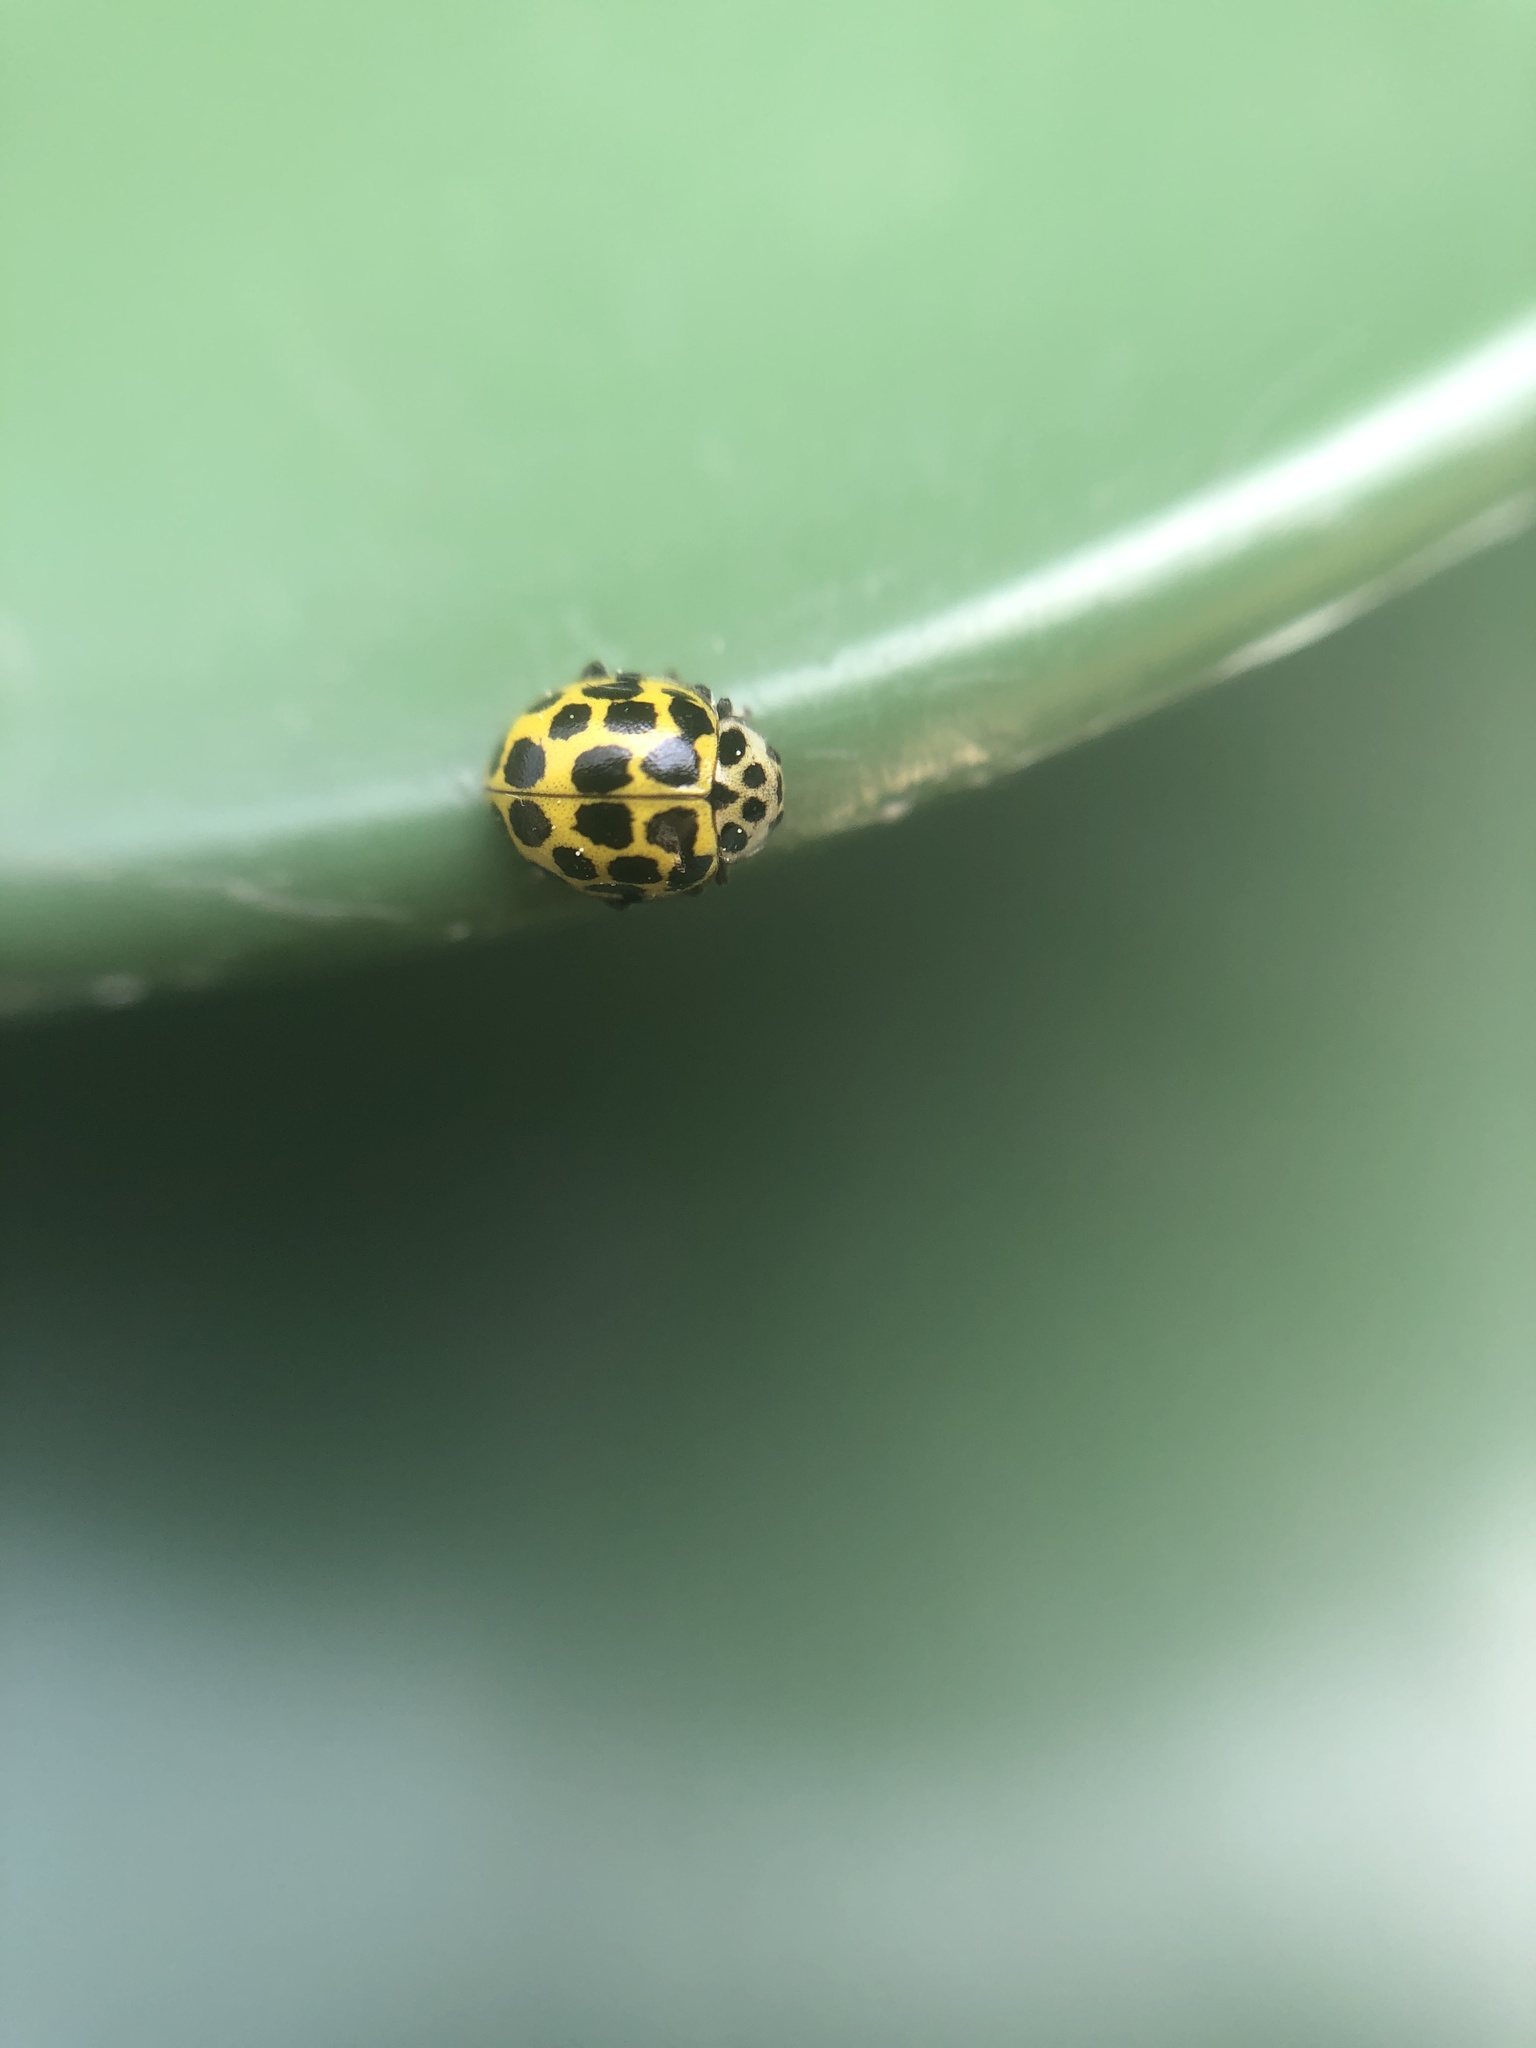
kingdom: Animalia
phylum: Arthropoda
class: Insecta
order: Coleoptera
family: Coccinellidae
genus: Psyllobora
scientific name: Psyllobora vigintiduopunctata
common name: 22-spot ladybird
